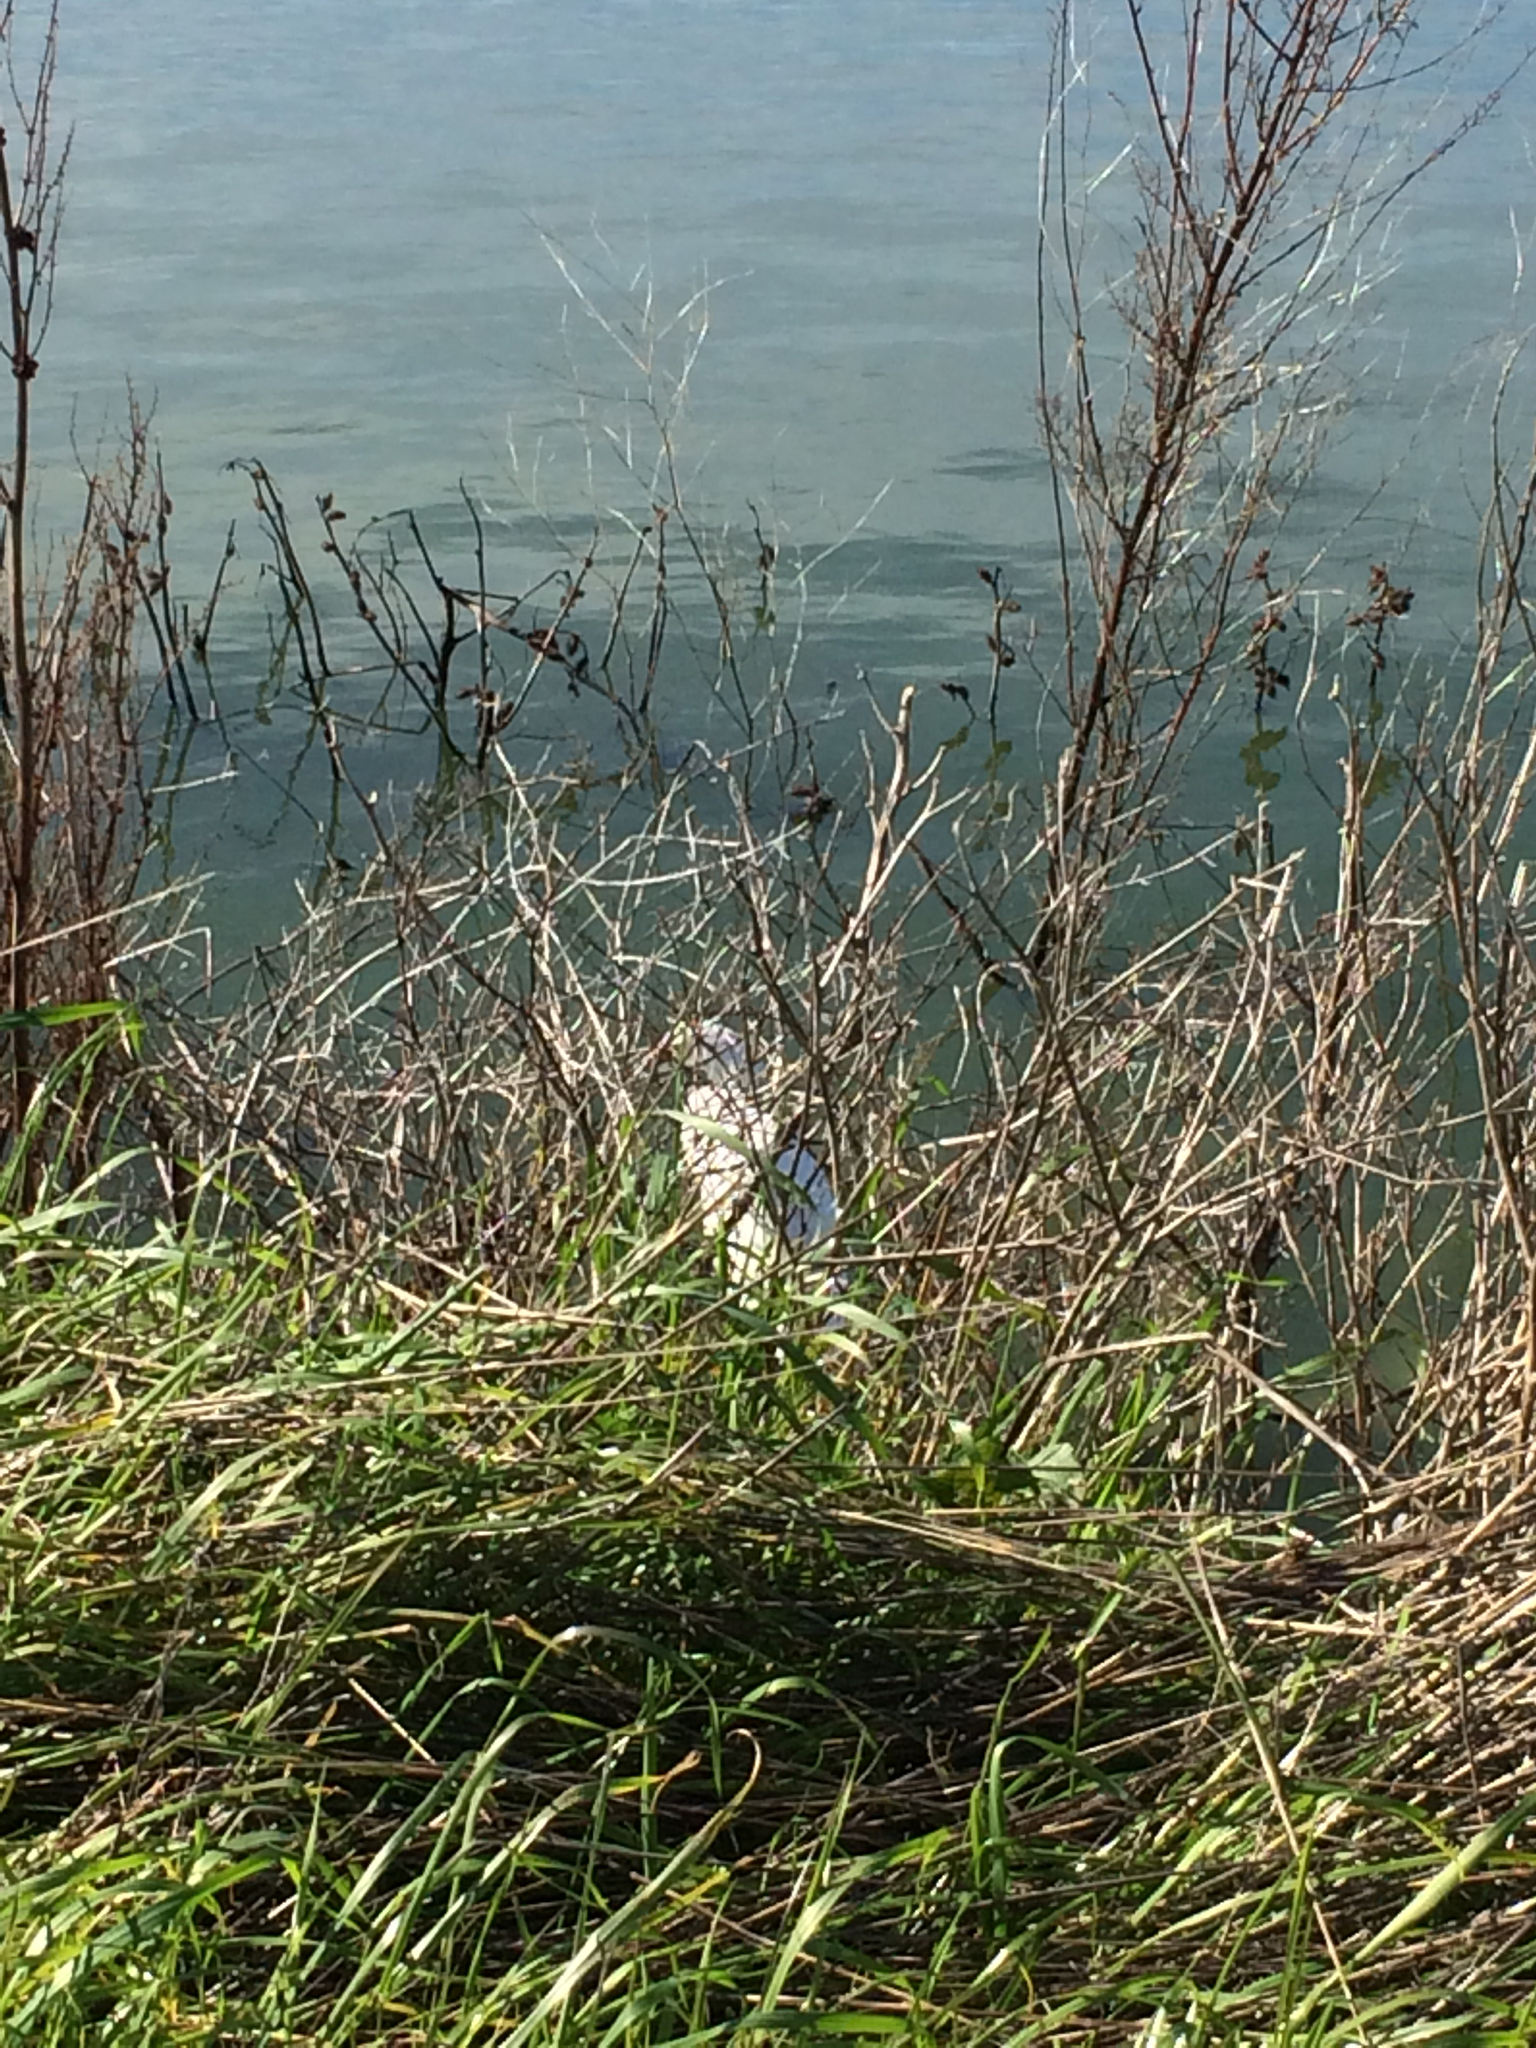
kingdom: Animalia
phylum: Chordata
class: Aves
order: Pelecaniformes
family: Ardeidae
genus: Egretta
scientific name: Egretta thula
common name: Snowy egret
